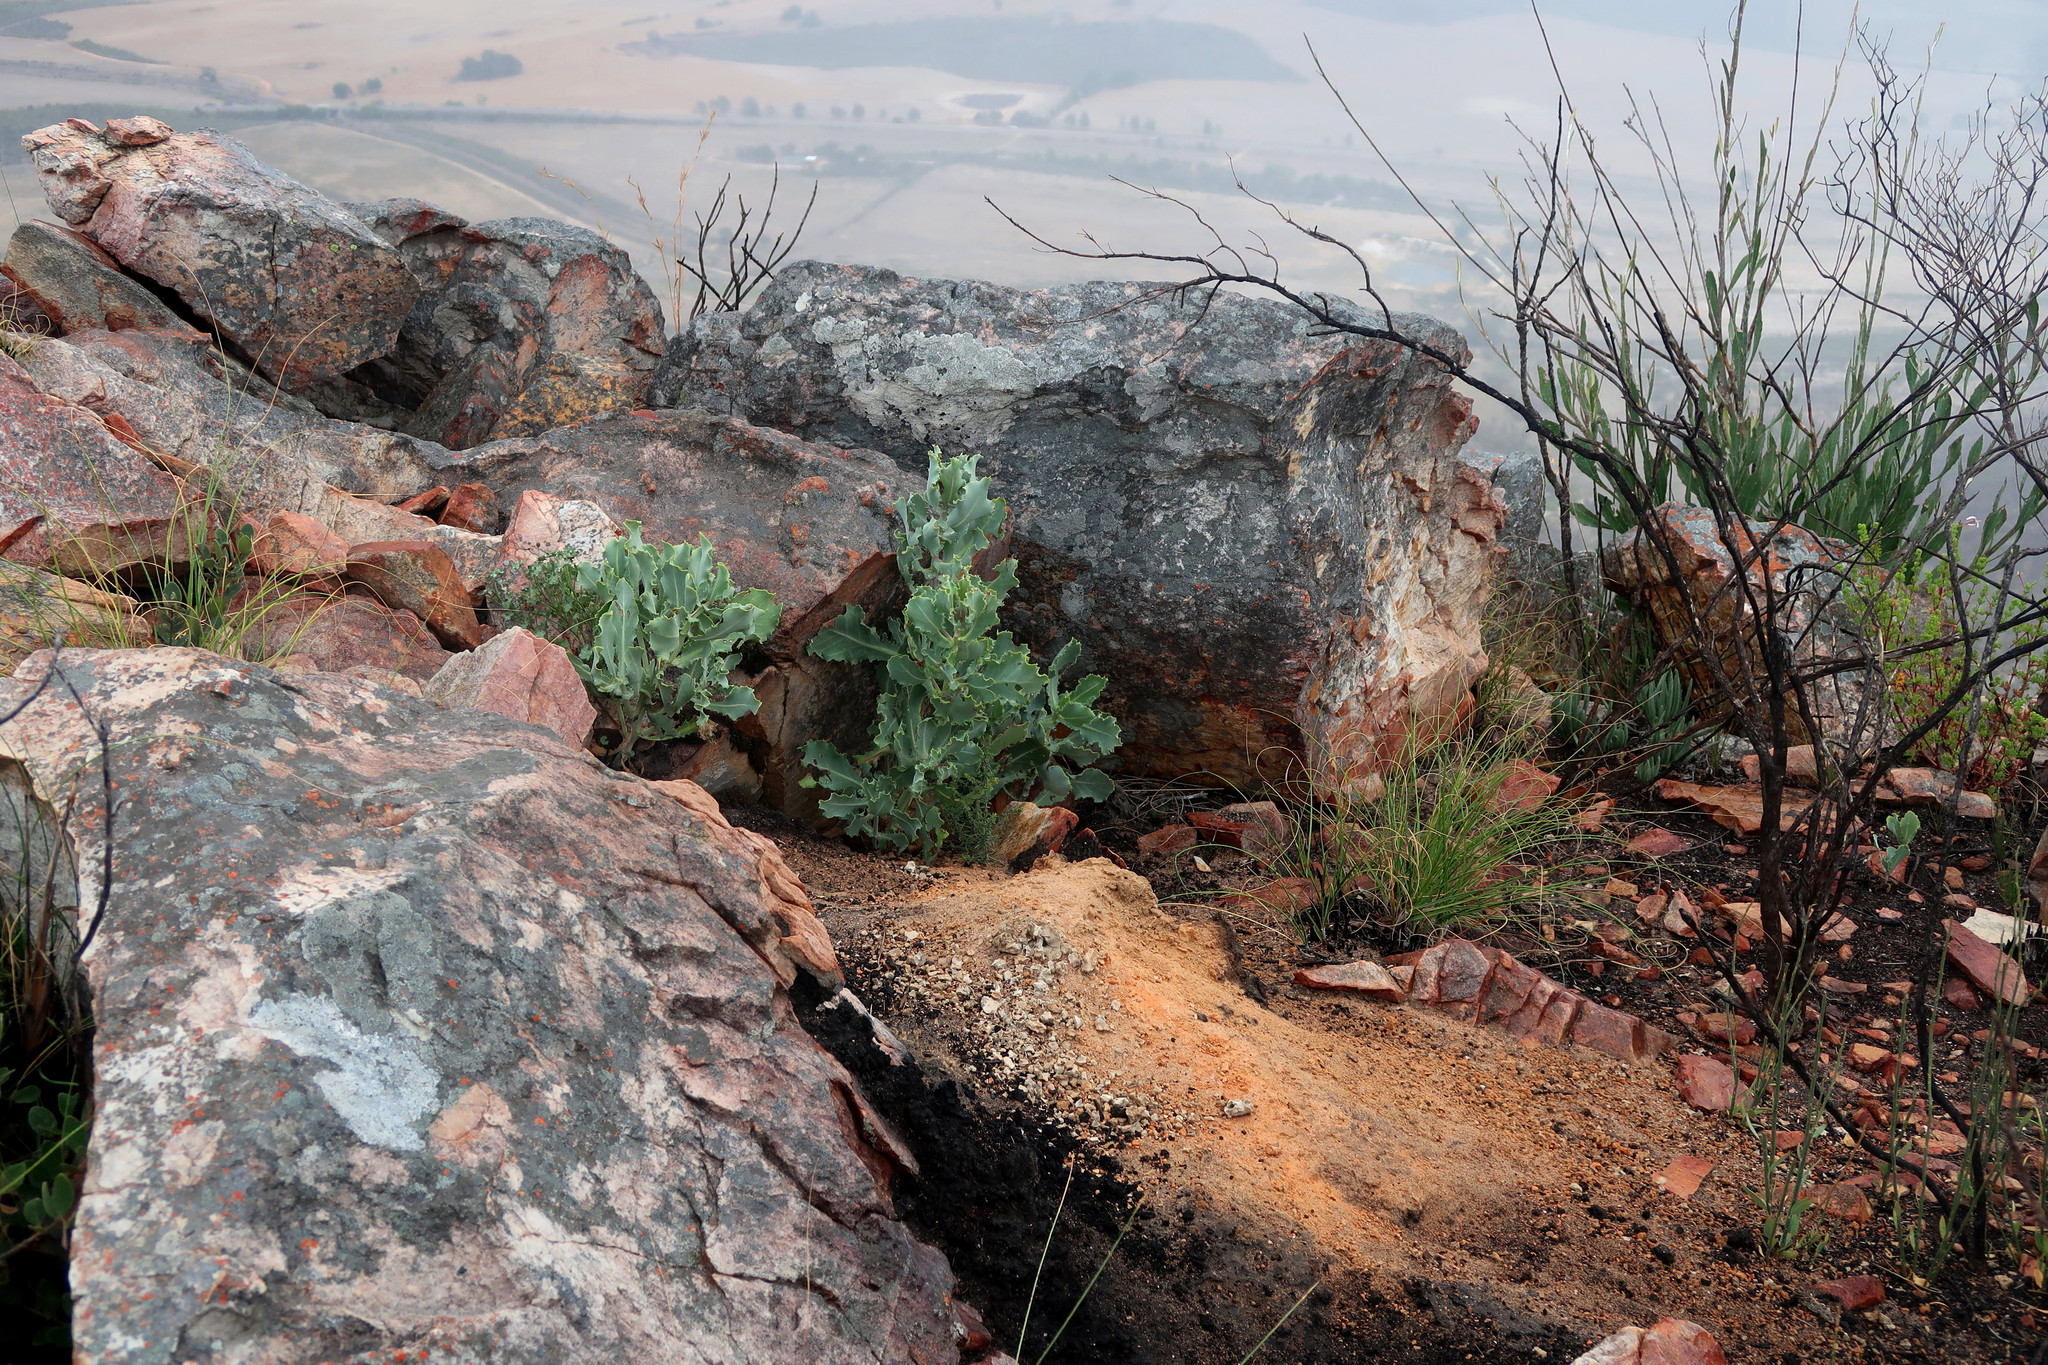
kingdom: Plantae
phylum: Tracheophyta
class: Magnoliopsida
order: Asterales
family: Asteraceae
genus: Othonna
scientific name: Othonna parviflora
